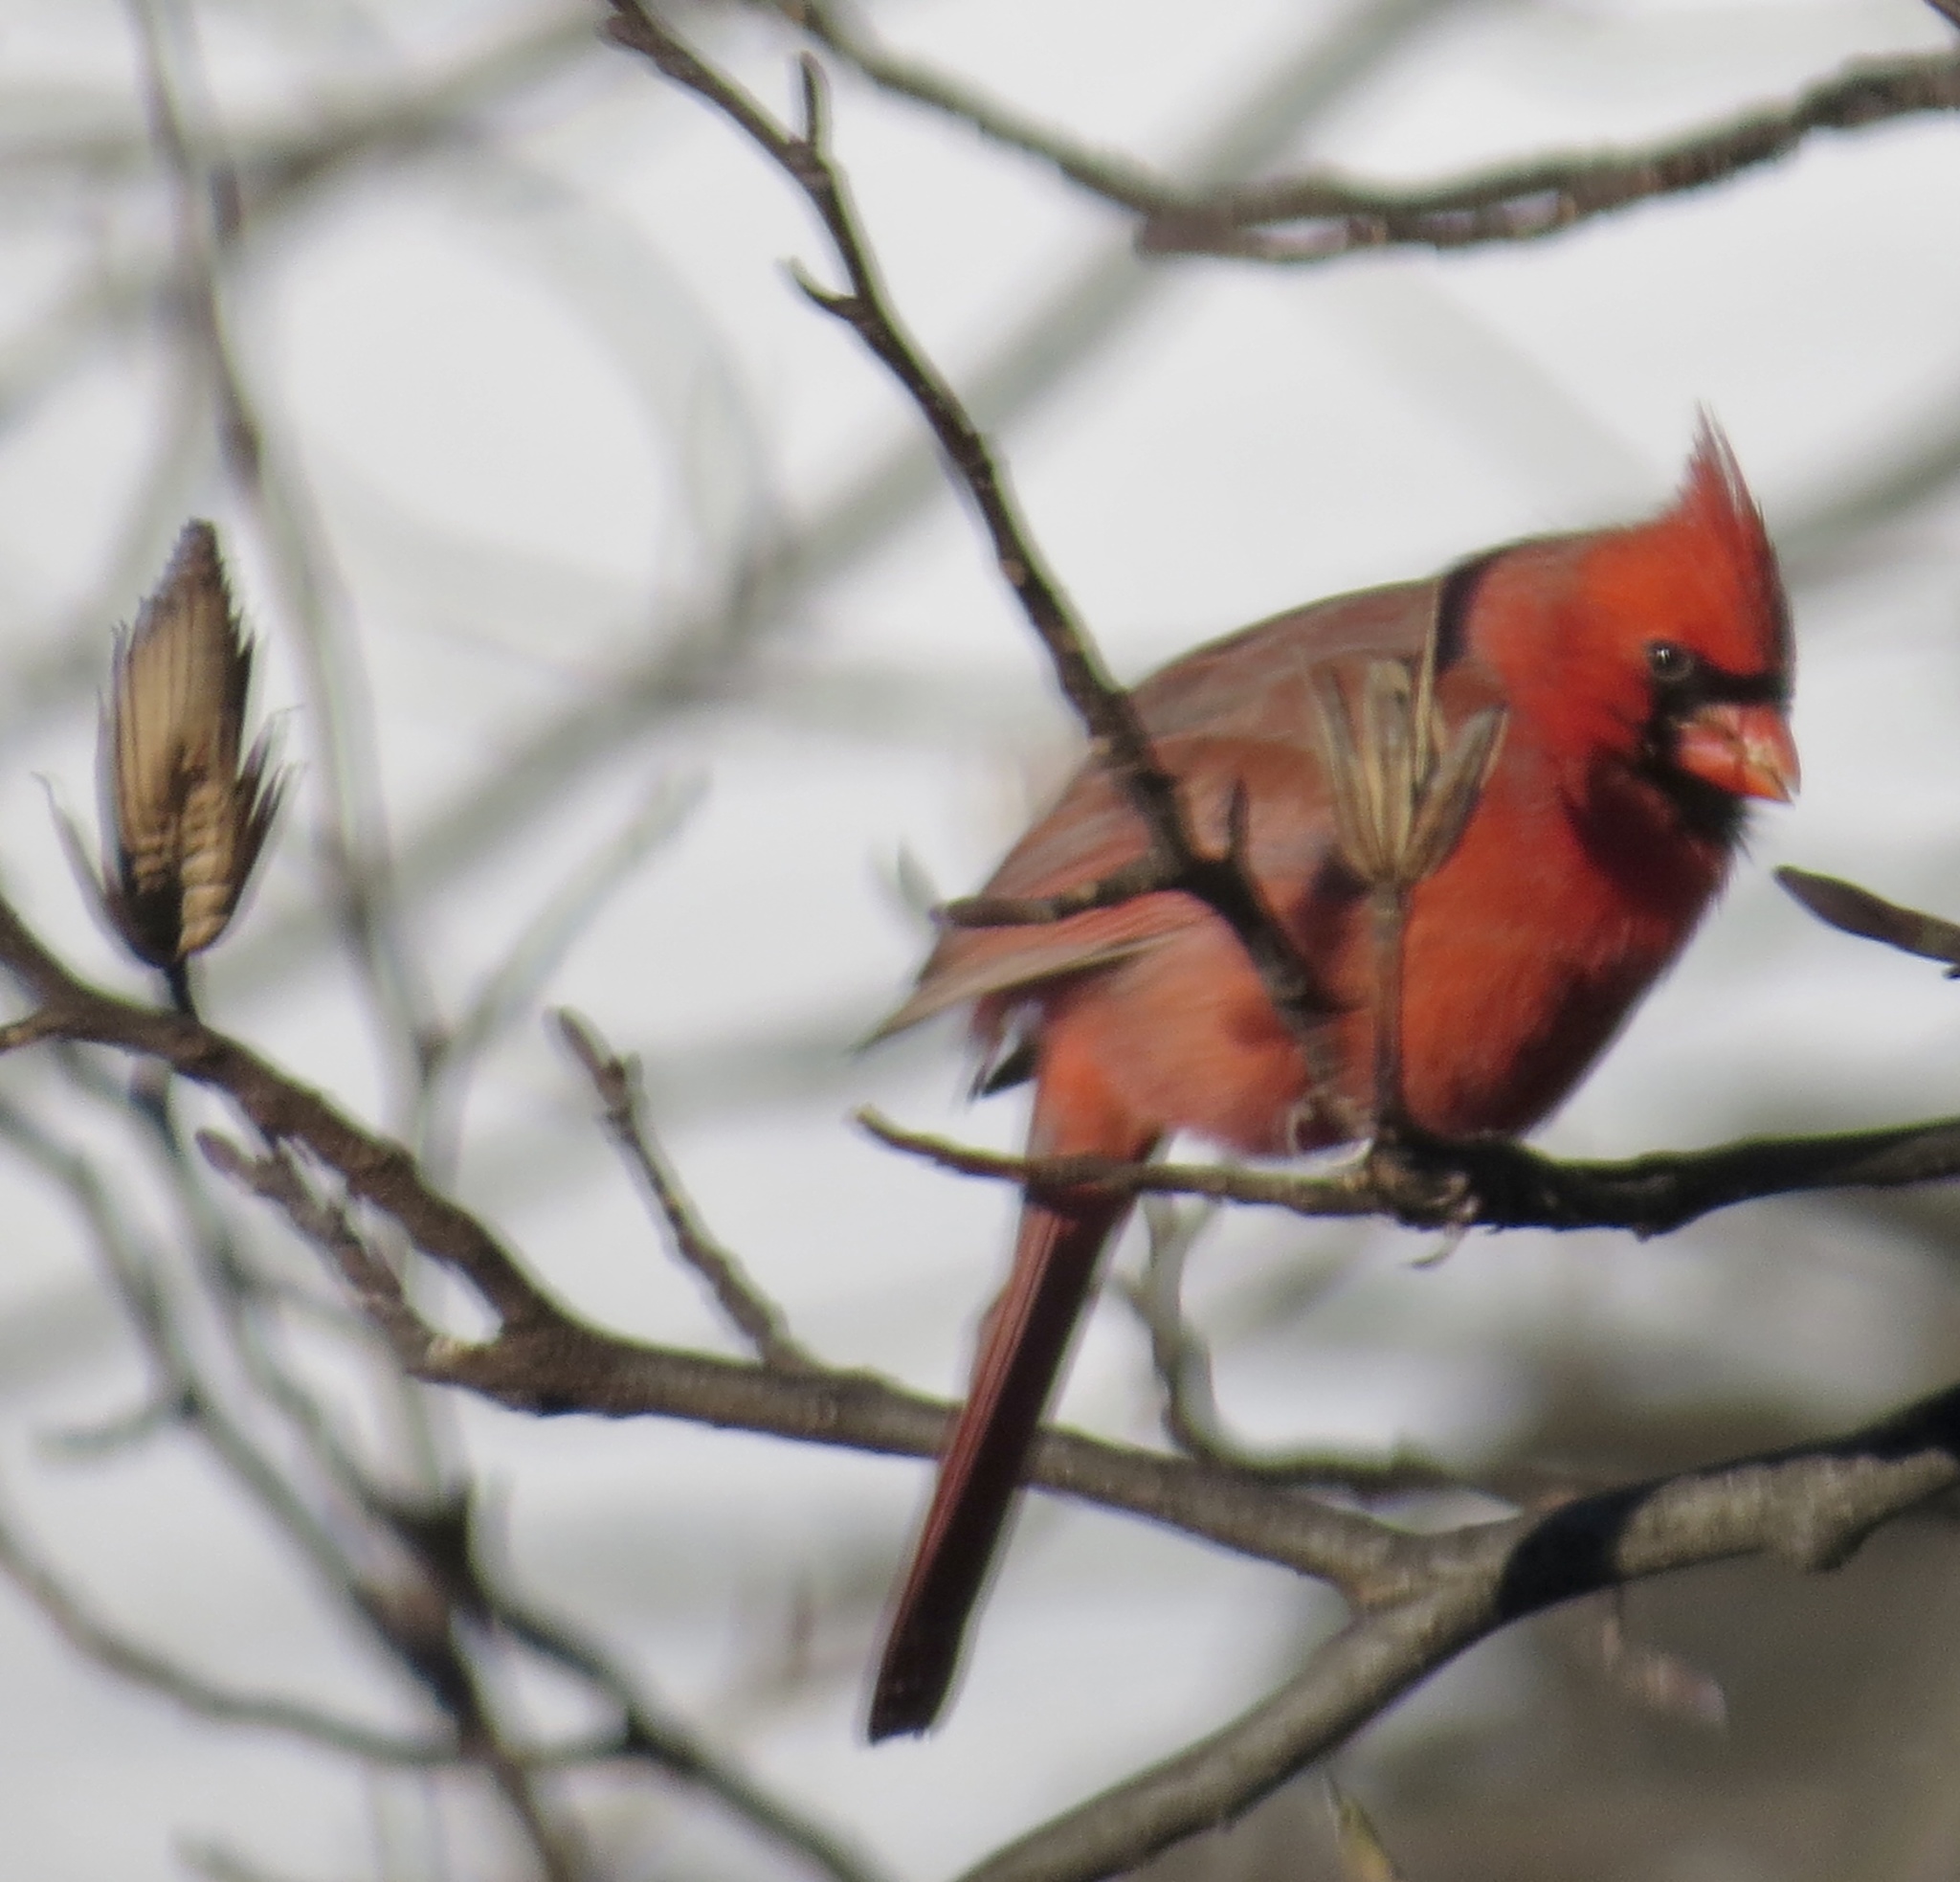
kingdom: Animalia
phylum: Chordata
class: Aves
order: Passeriformes
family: Cardinalidae
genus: Cardinalis
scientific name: Cardinalis cardinalis
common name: Northern cardinal
